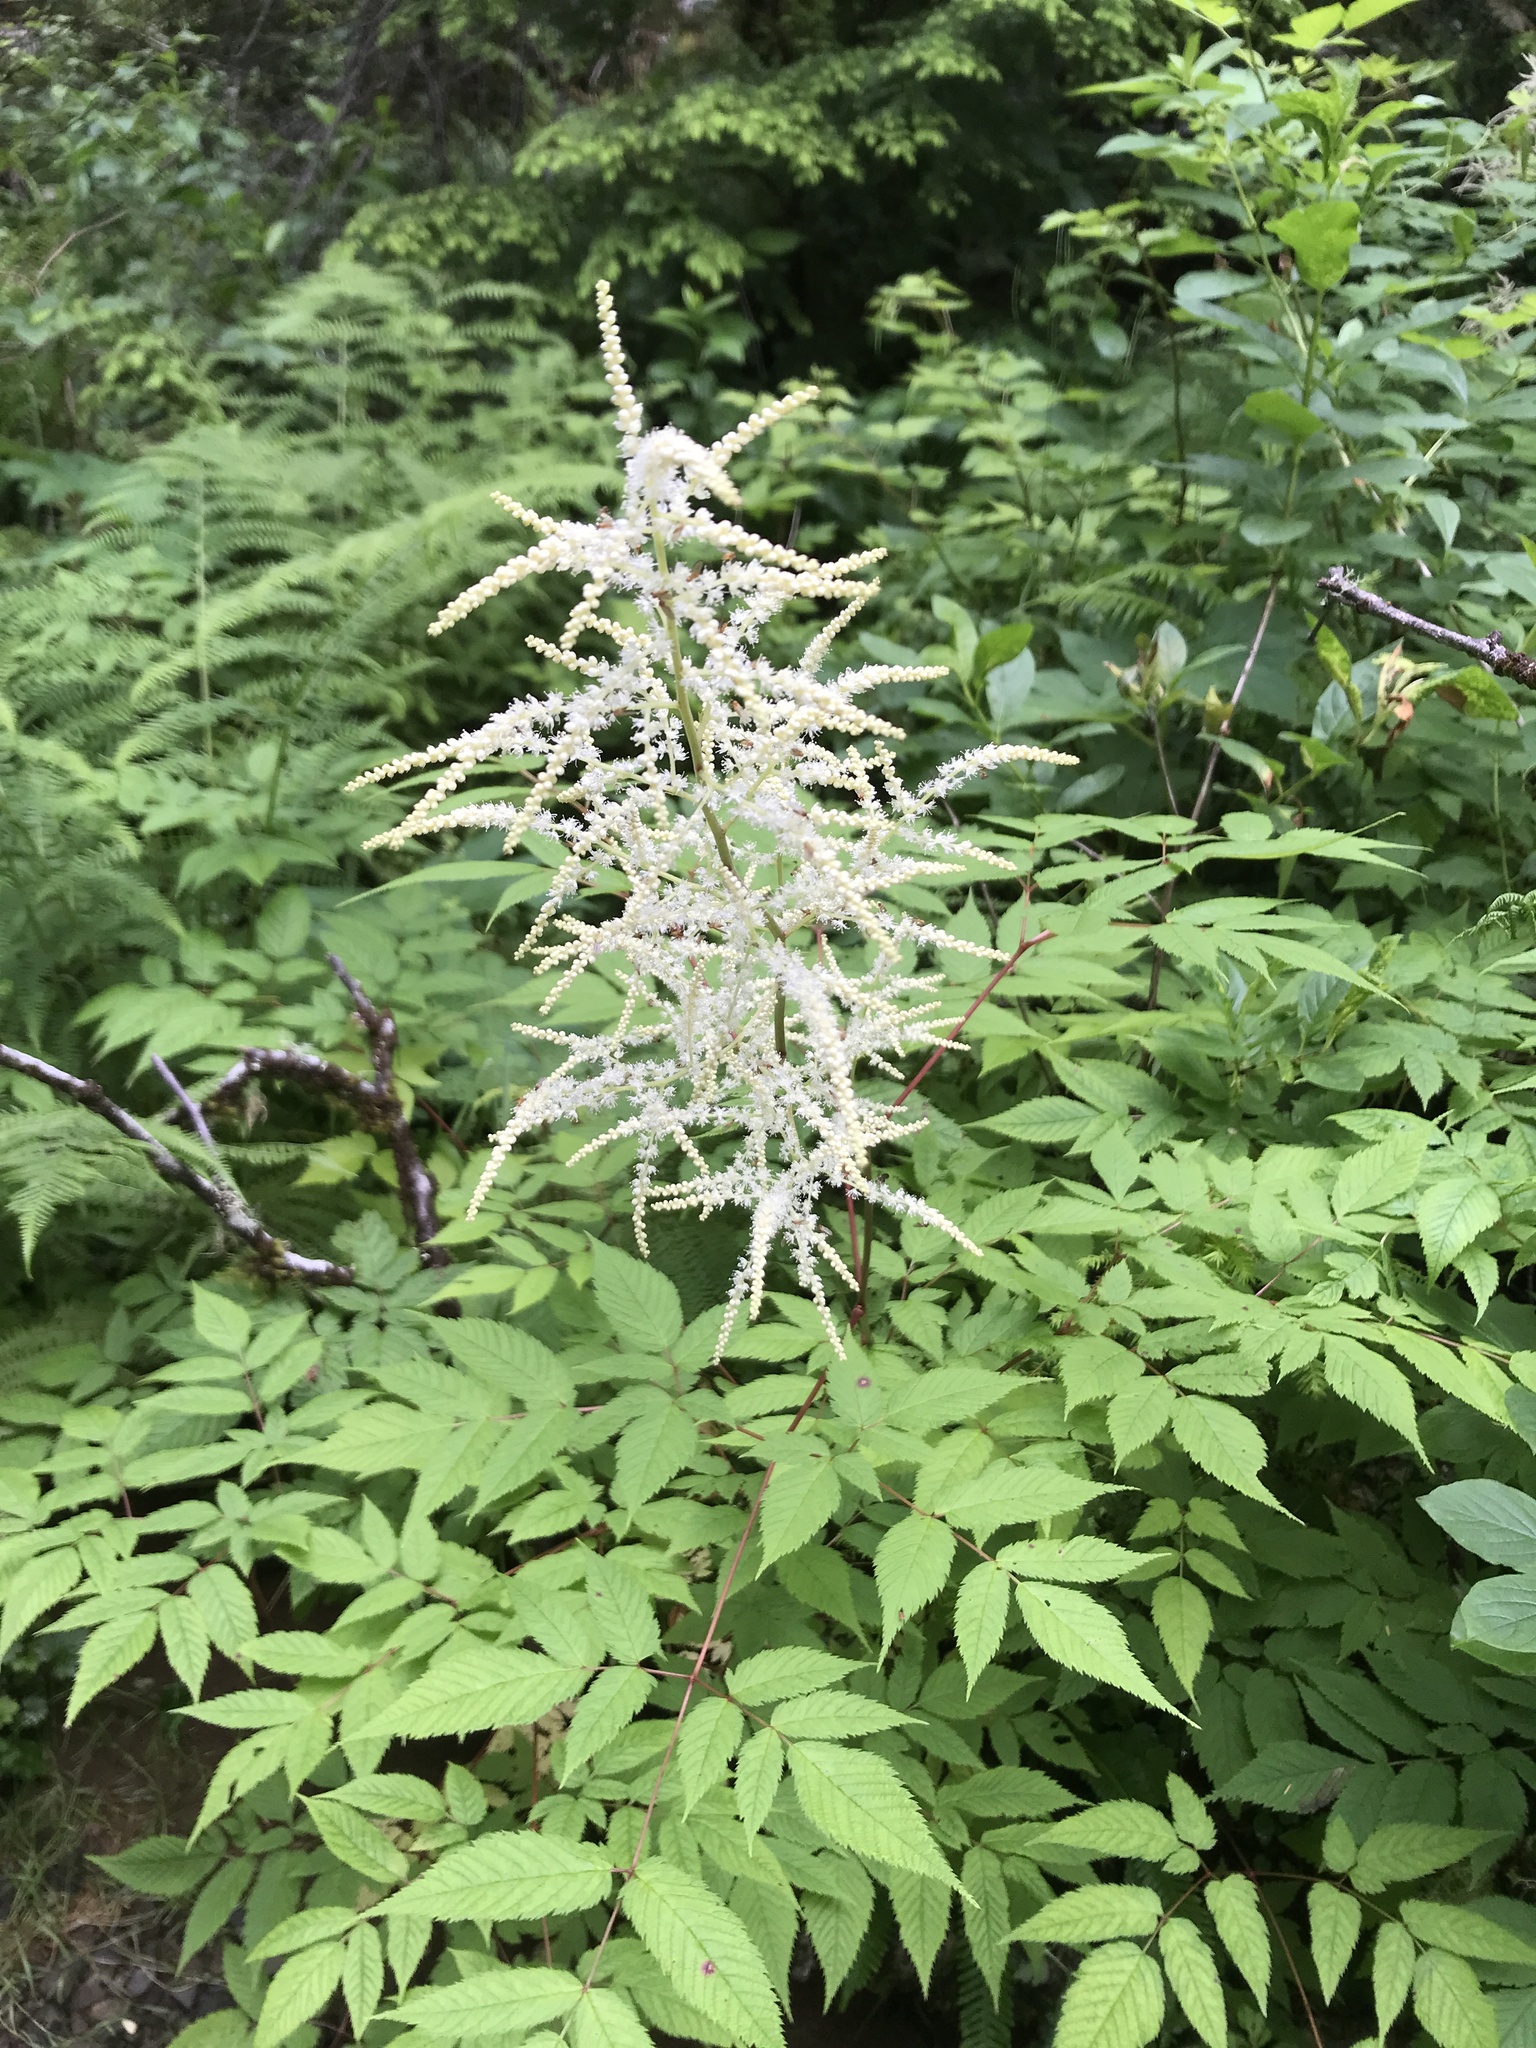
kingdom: Plantae
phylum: Tracheophyta
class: Magnoliopsida
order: Rosales
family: Rosaceae
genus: Aruncus
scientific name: Aruncus dioicus
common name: Buck's-beard
